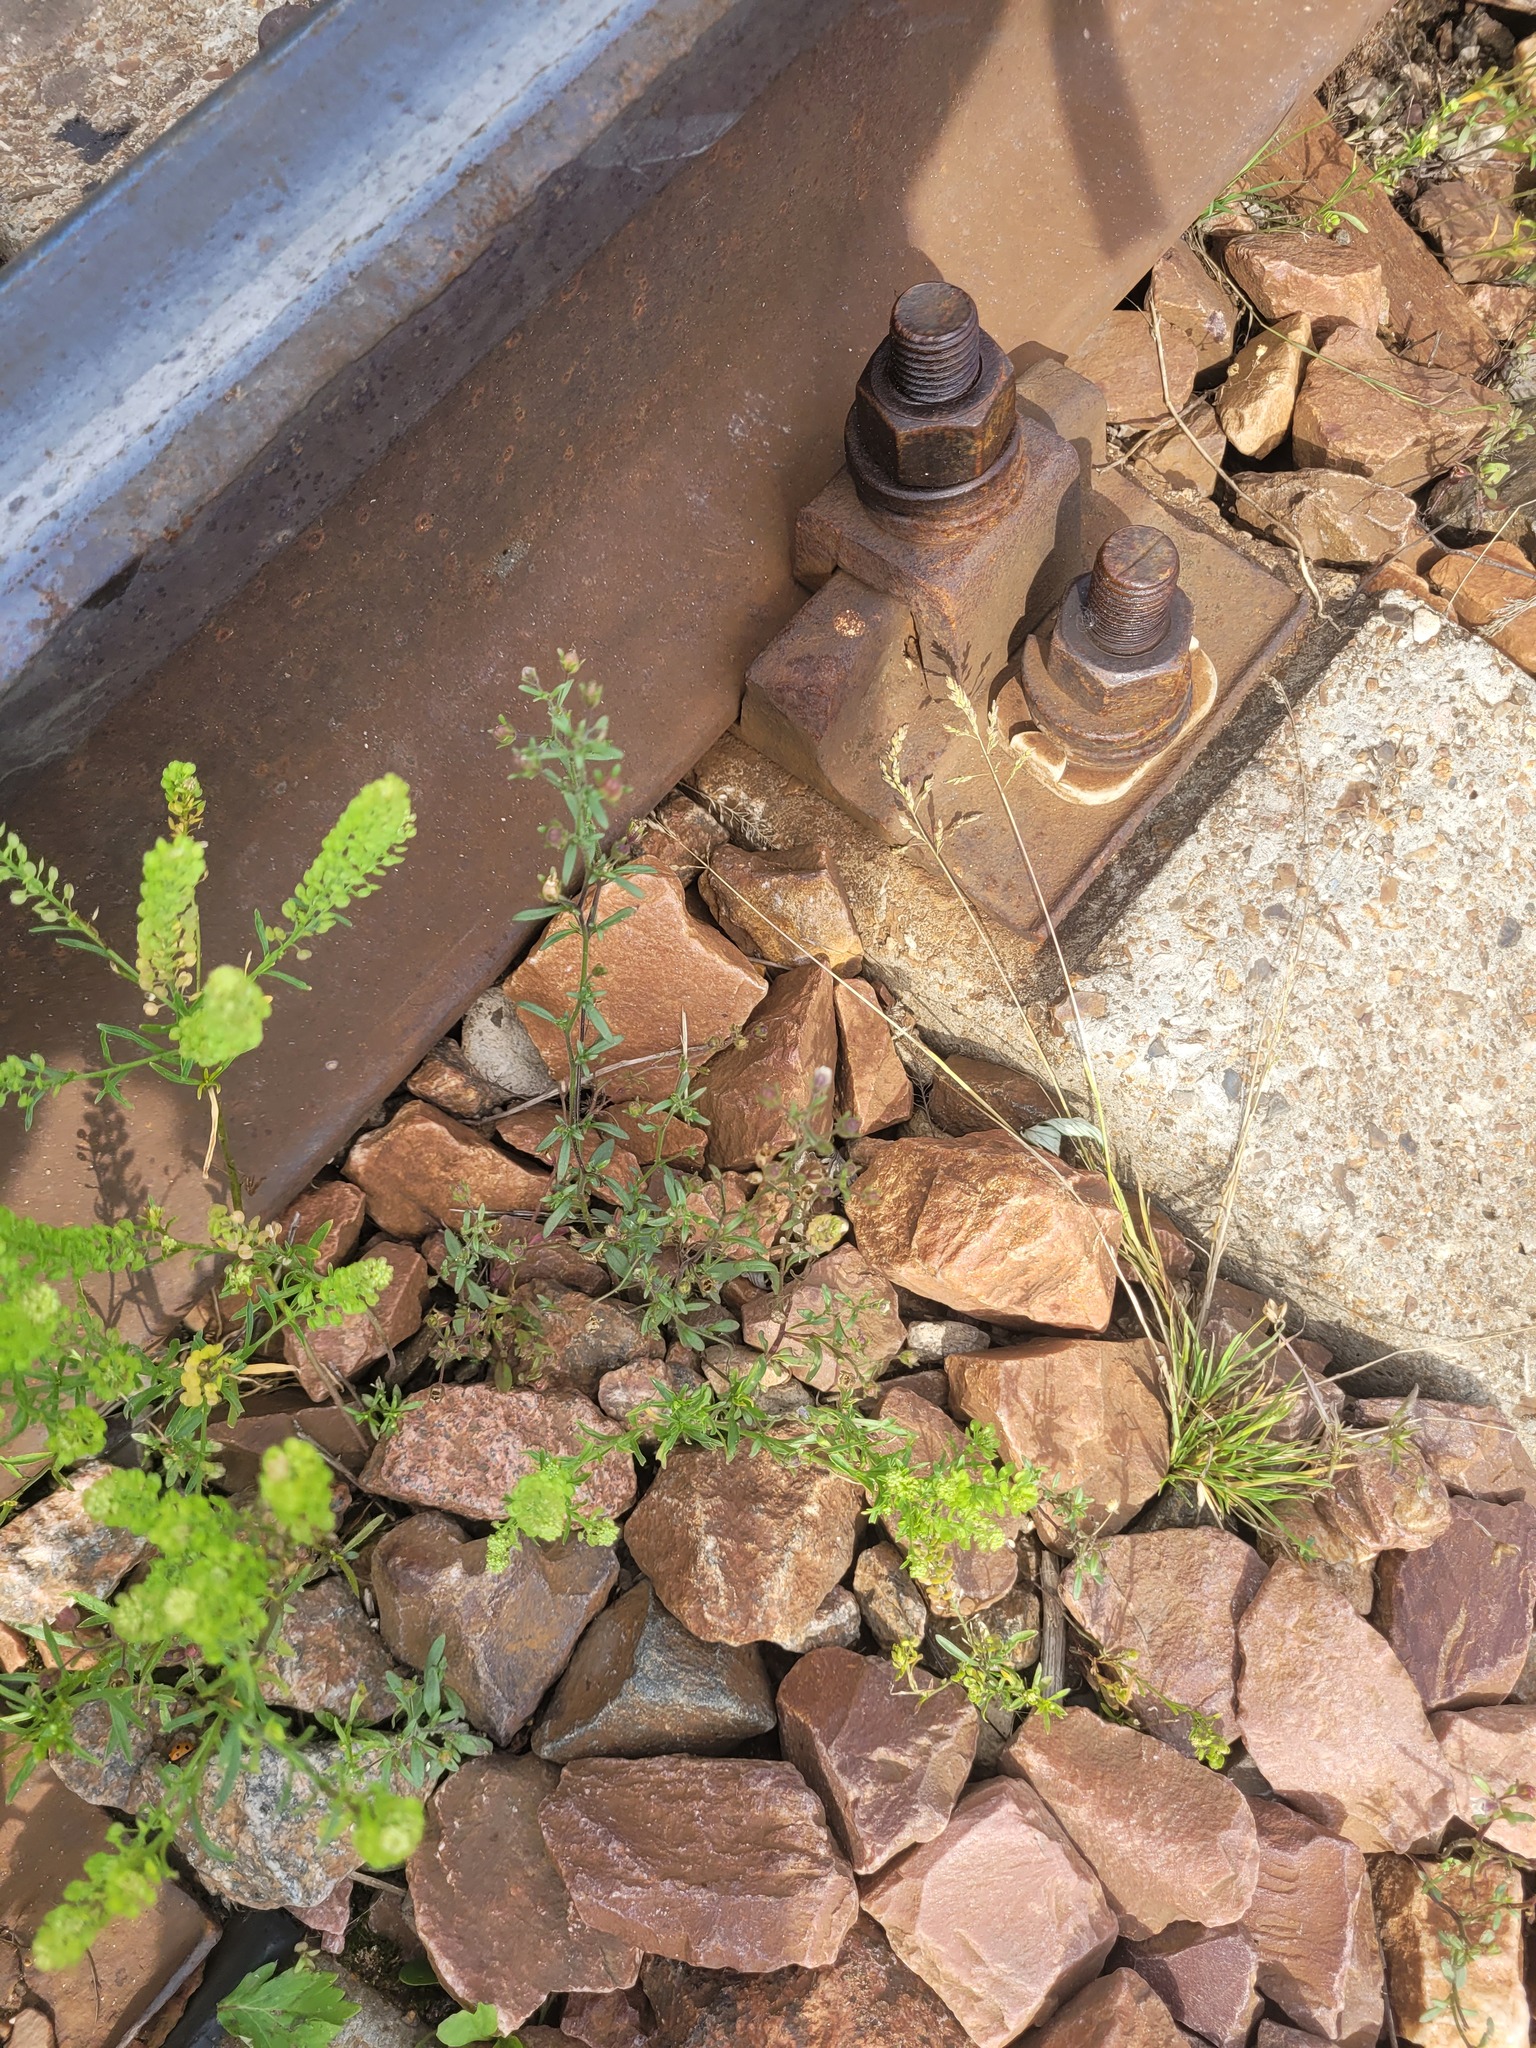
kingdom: Plantae
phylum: Tracheophyta
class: Magnoliopsida
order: Lamiales
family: Plantaginaceae
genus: Chaenorhinum
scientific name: Chaenorhinum minus
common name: Dwarf snapdragon
